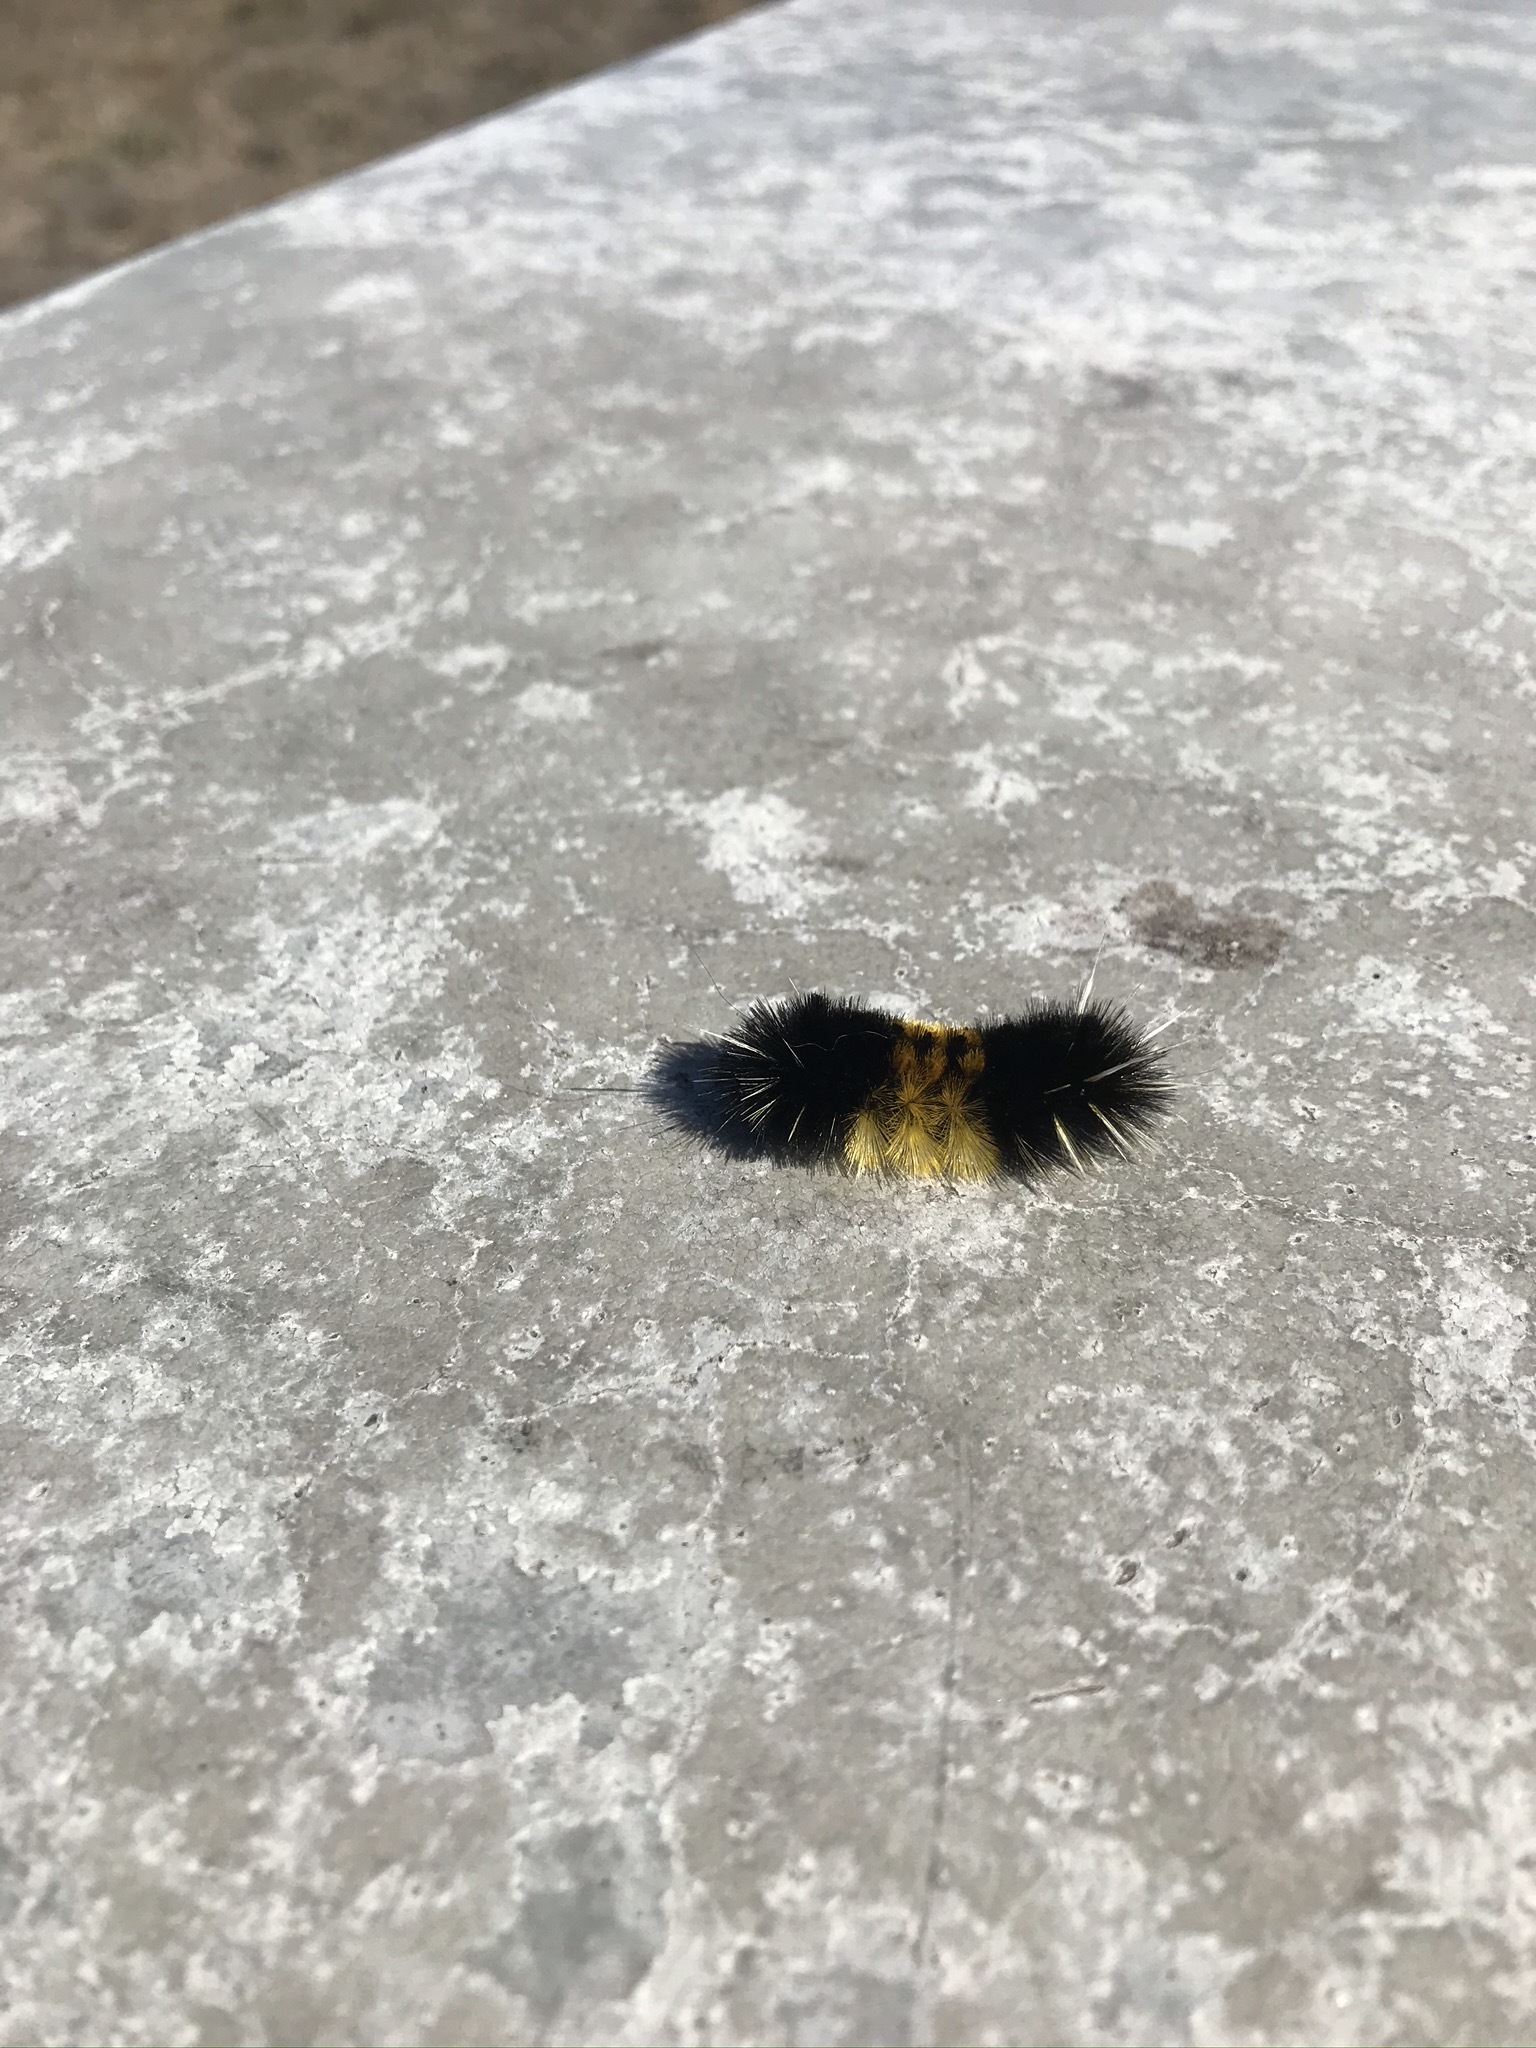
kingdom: Animalia
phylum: Arthropoda
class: Insecta
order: Lepidoptera
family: Erebidae
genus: Lophocampa
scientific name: Lophocampa maculata
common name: Spotted tussock moth
